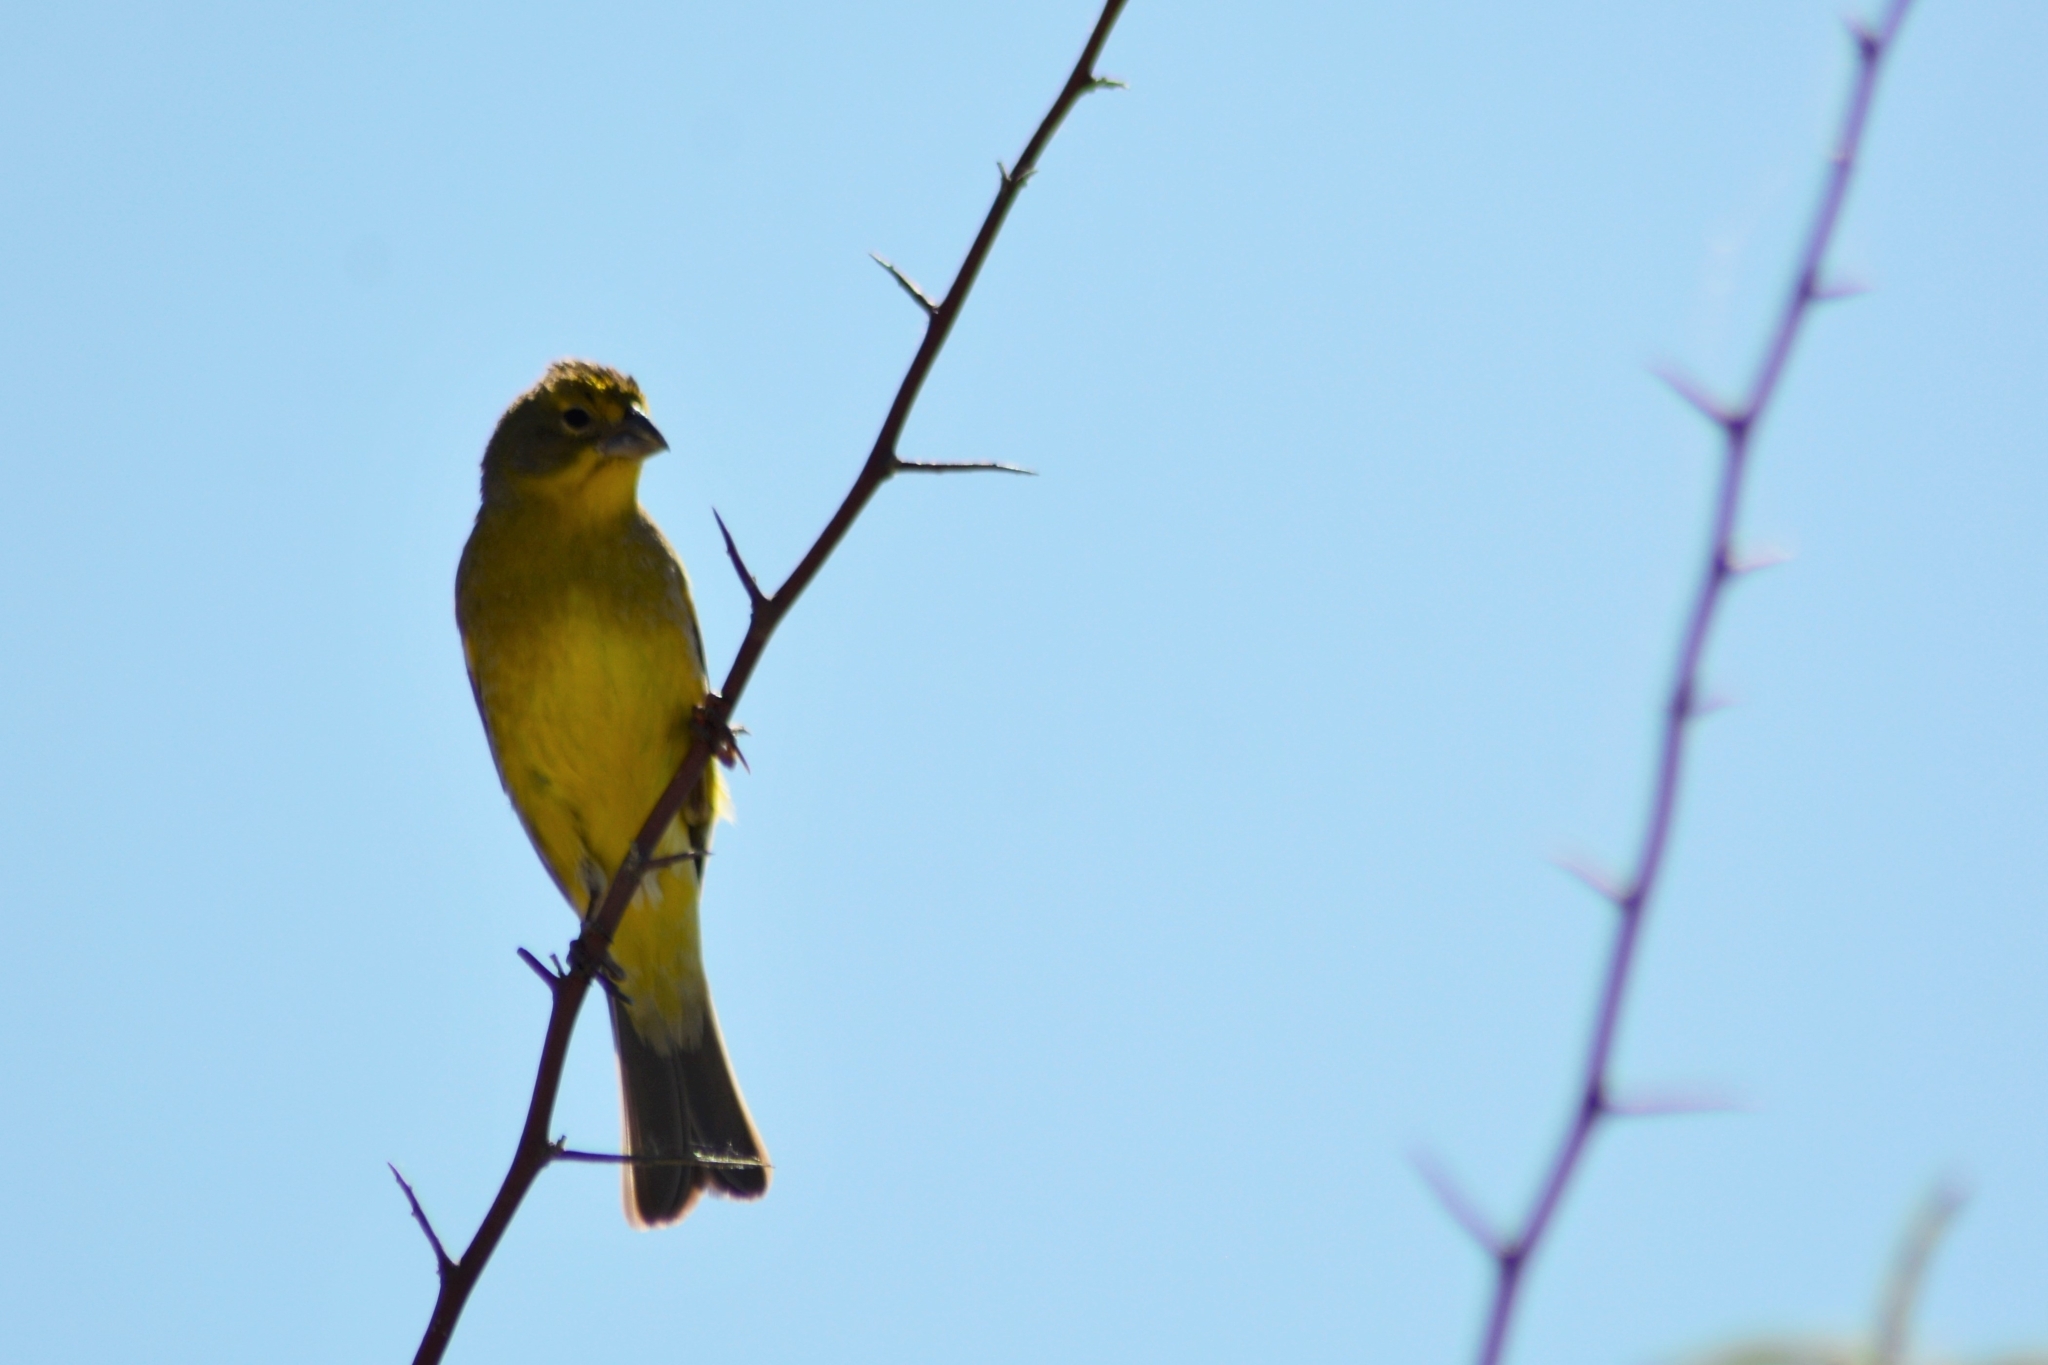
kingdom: Animalia
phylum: Chordata
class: Aves
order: Passeriformes
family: Thraupidae
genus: Sicalis
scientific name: Sicalis luteola
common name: Grassland yellow-finch
